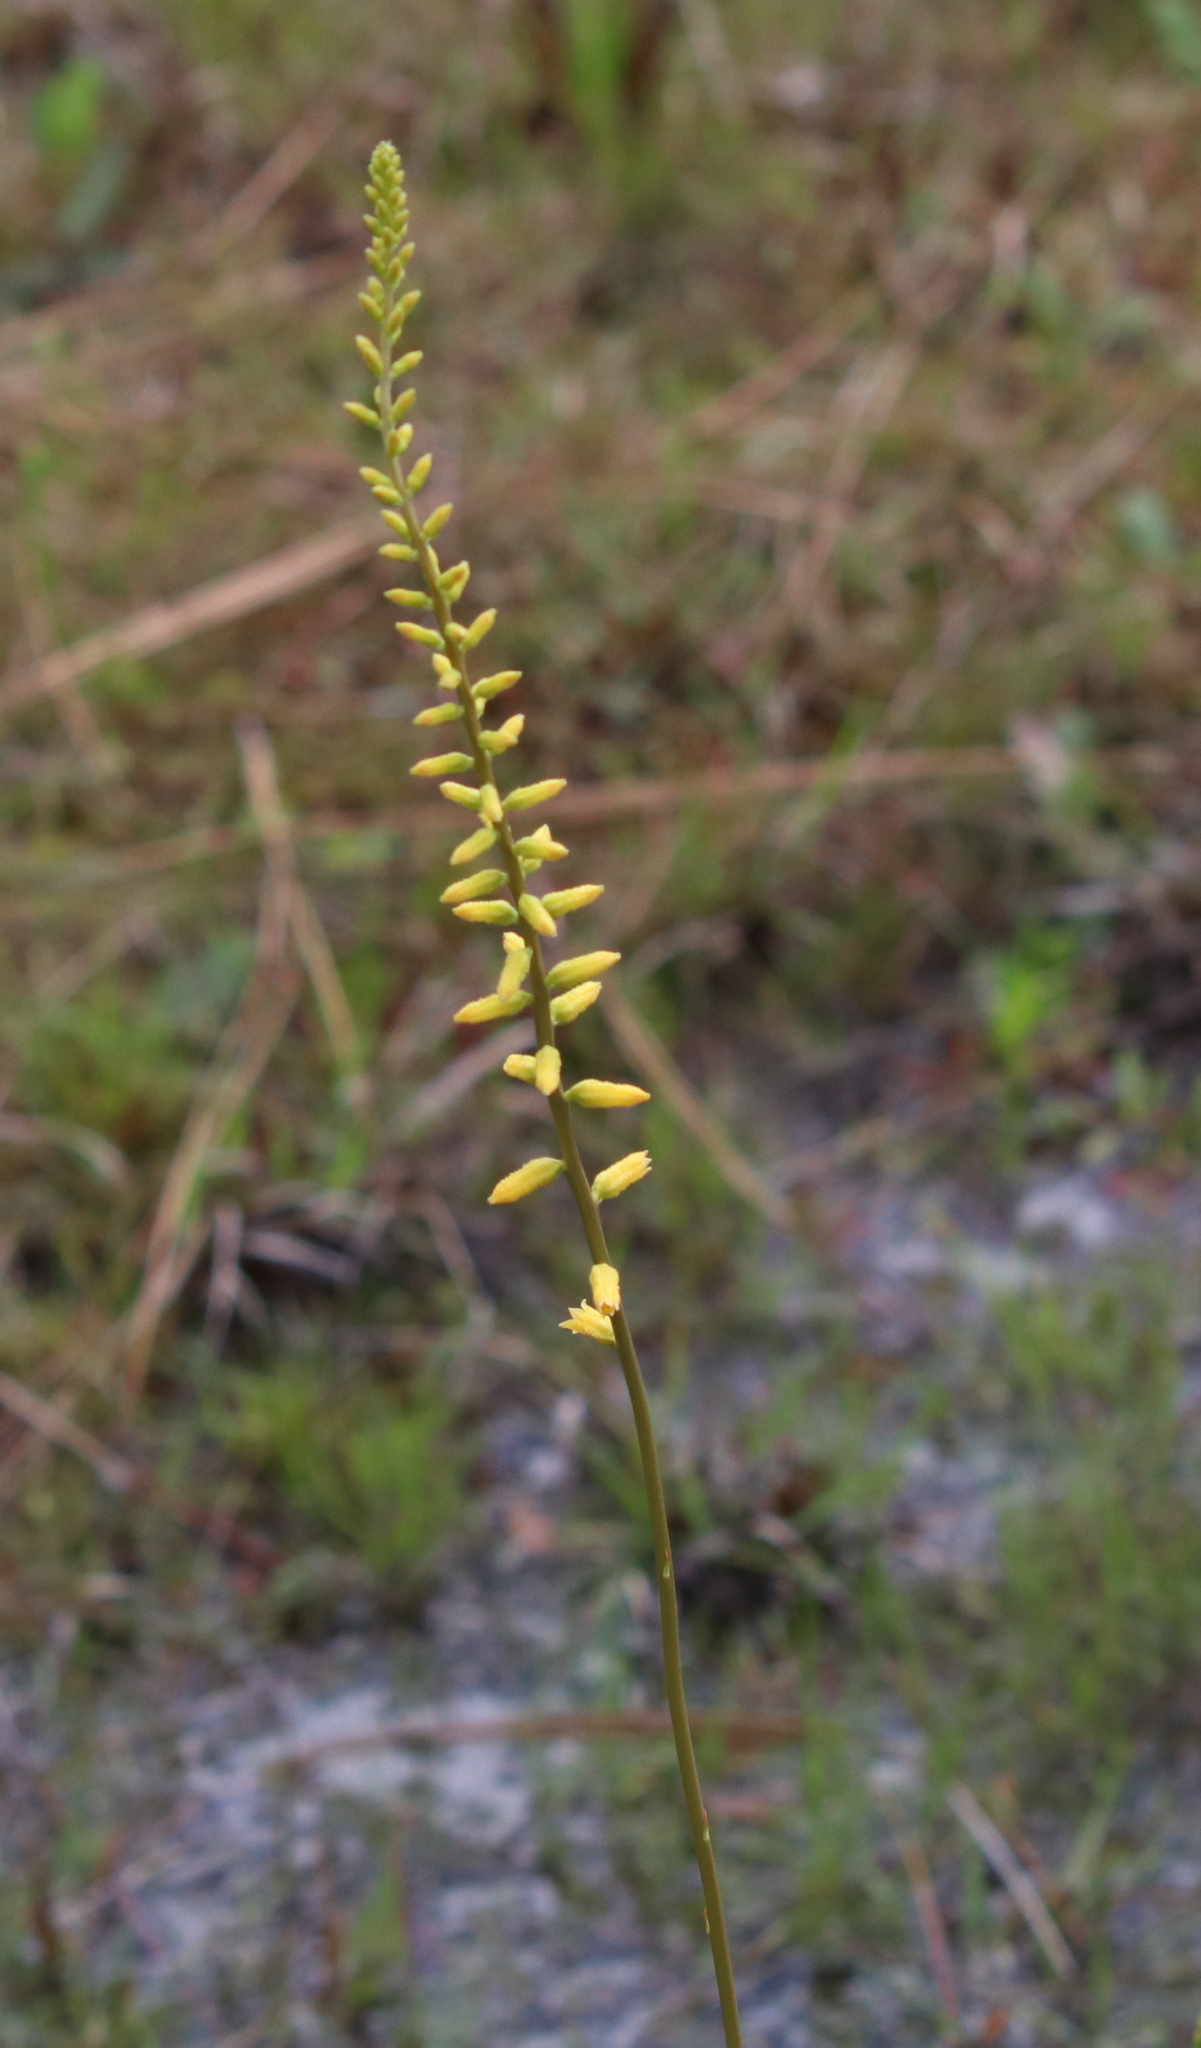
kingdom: Plantae
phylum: Tracheophyta
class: Liliopsida
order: Dioscoreales
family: Nartheciaceae
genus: Aletris
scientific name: Aletris lutea
